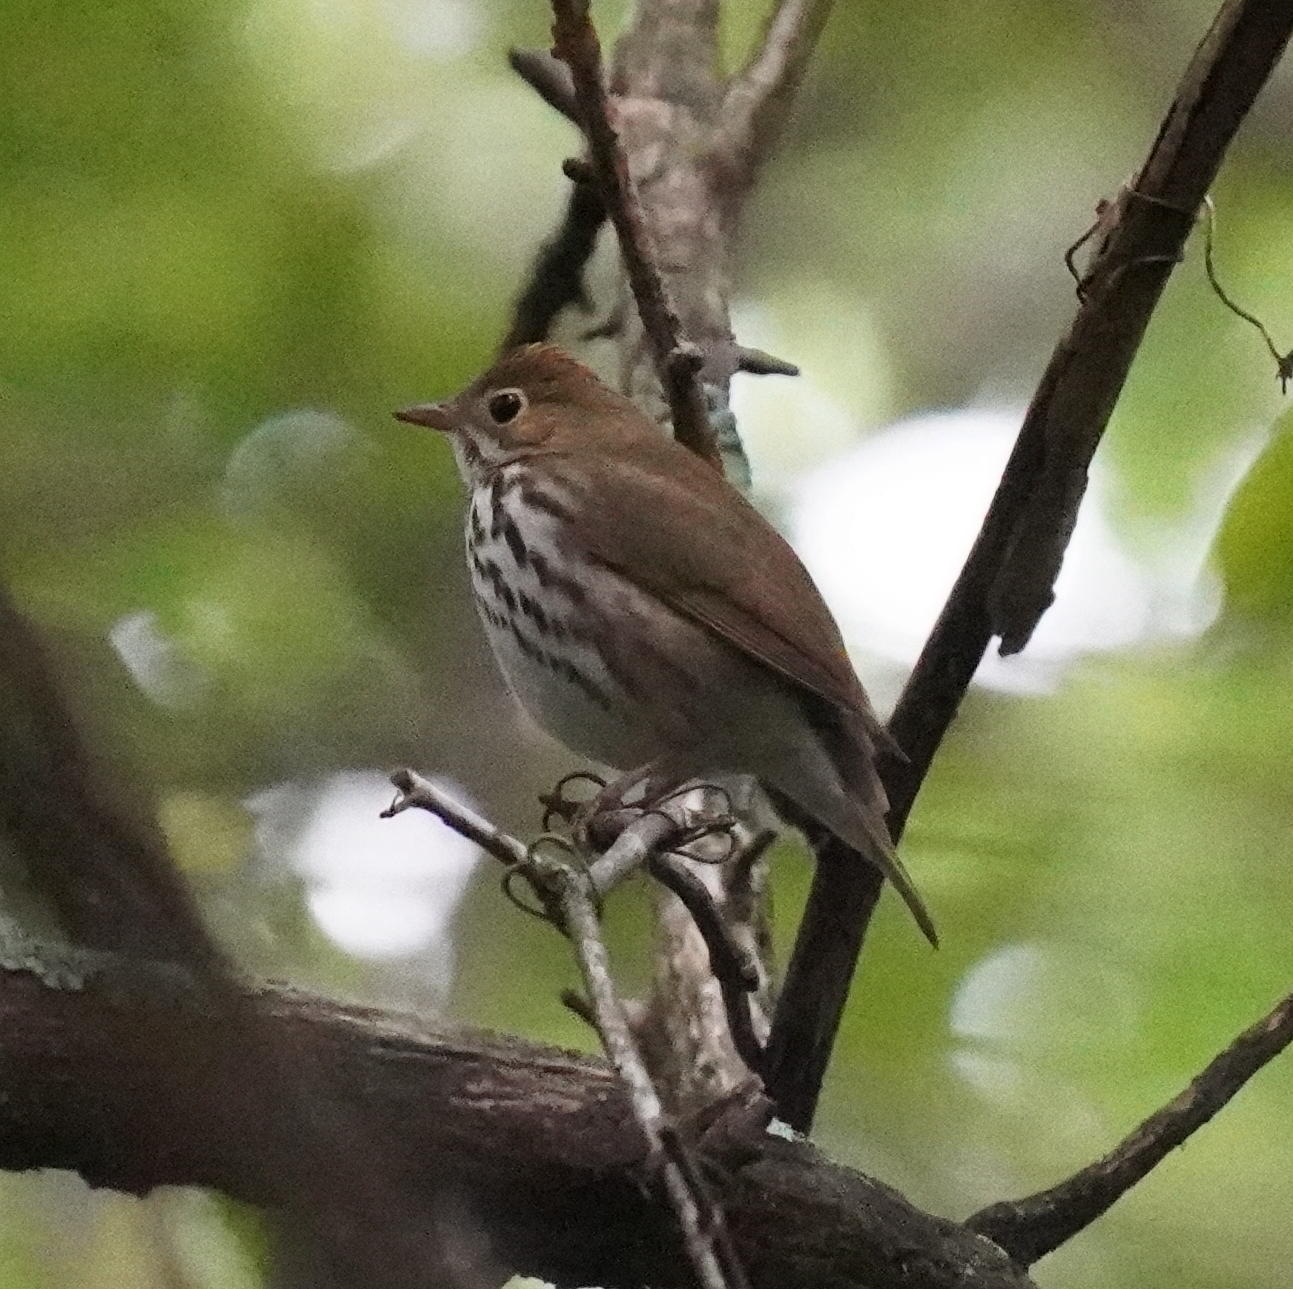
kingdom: Animalia
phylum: Chordata
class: Aves
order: Passeriformes
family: Parulidae
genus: Seiurus
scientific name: Seiurus aurocapilla
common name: Ovenbird
